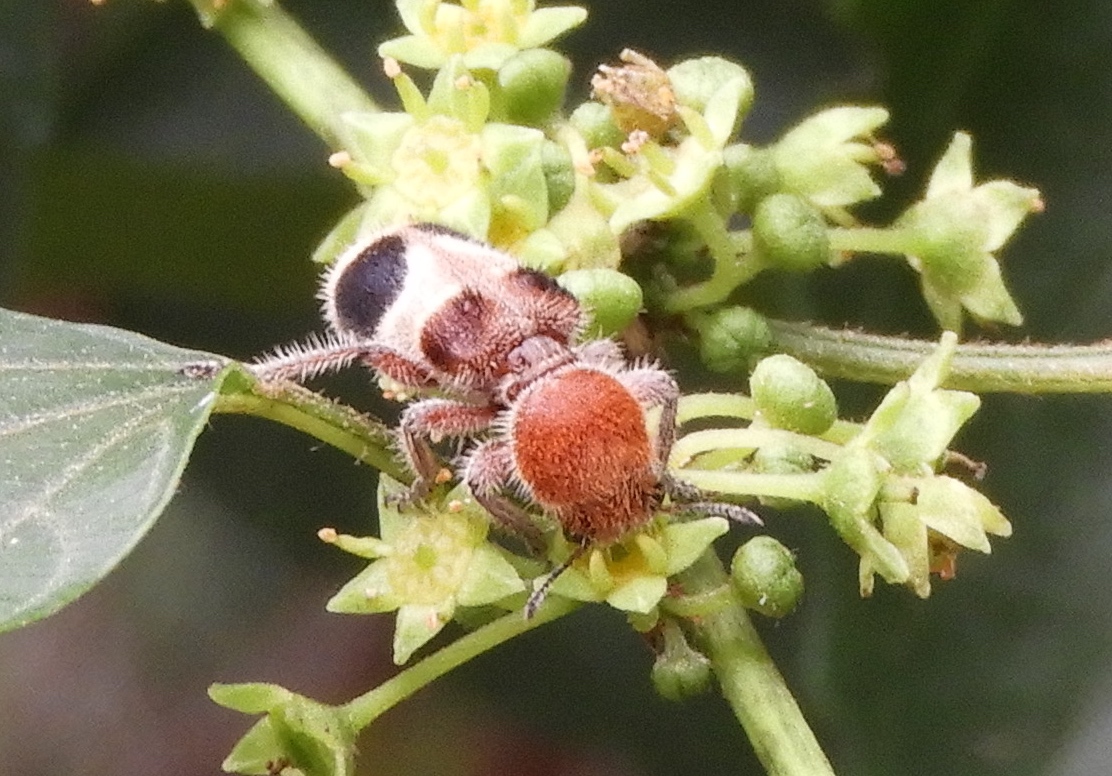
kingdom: Animalia
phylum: Arthropoda
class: Insecta
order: Coleoptera
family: Cleridae
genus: Enoclerus
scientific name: Enoclerus quadriguttatus
